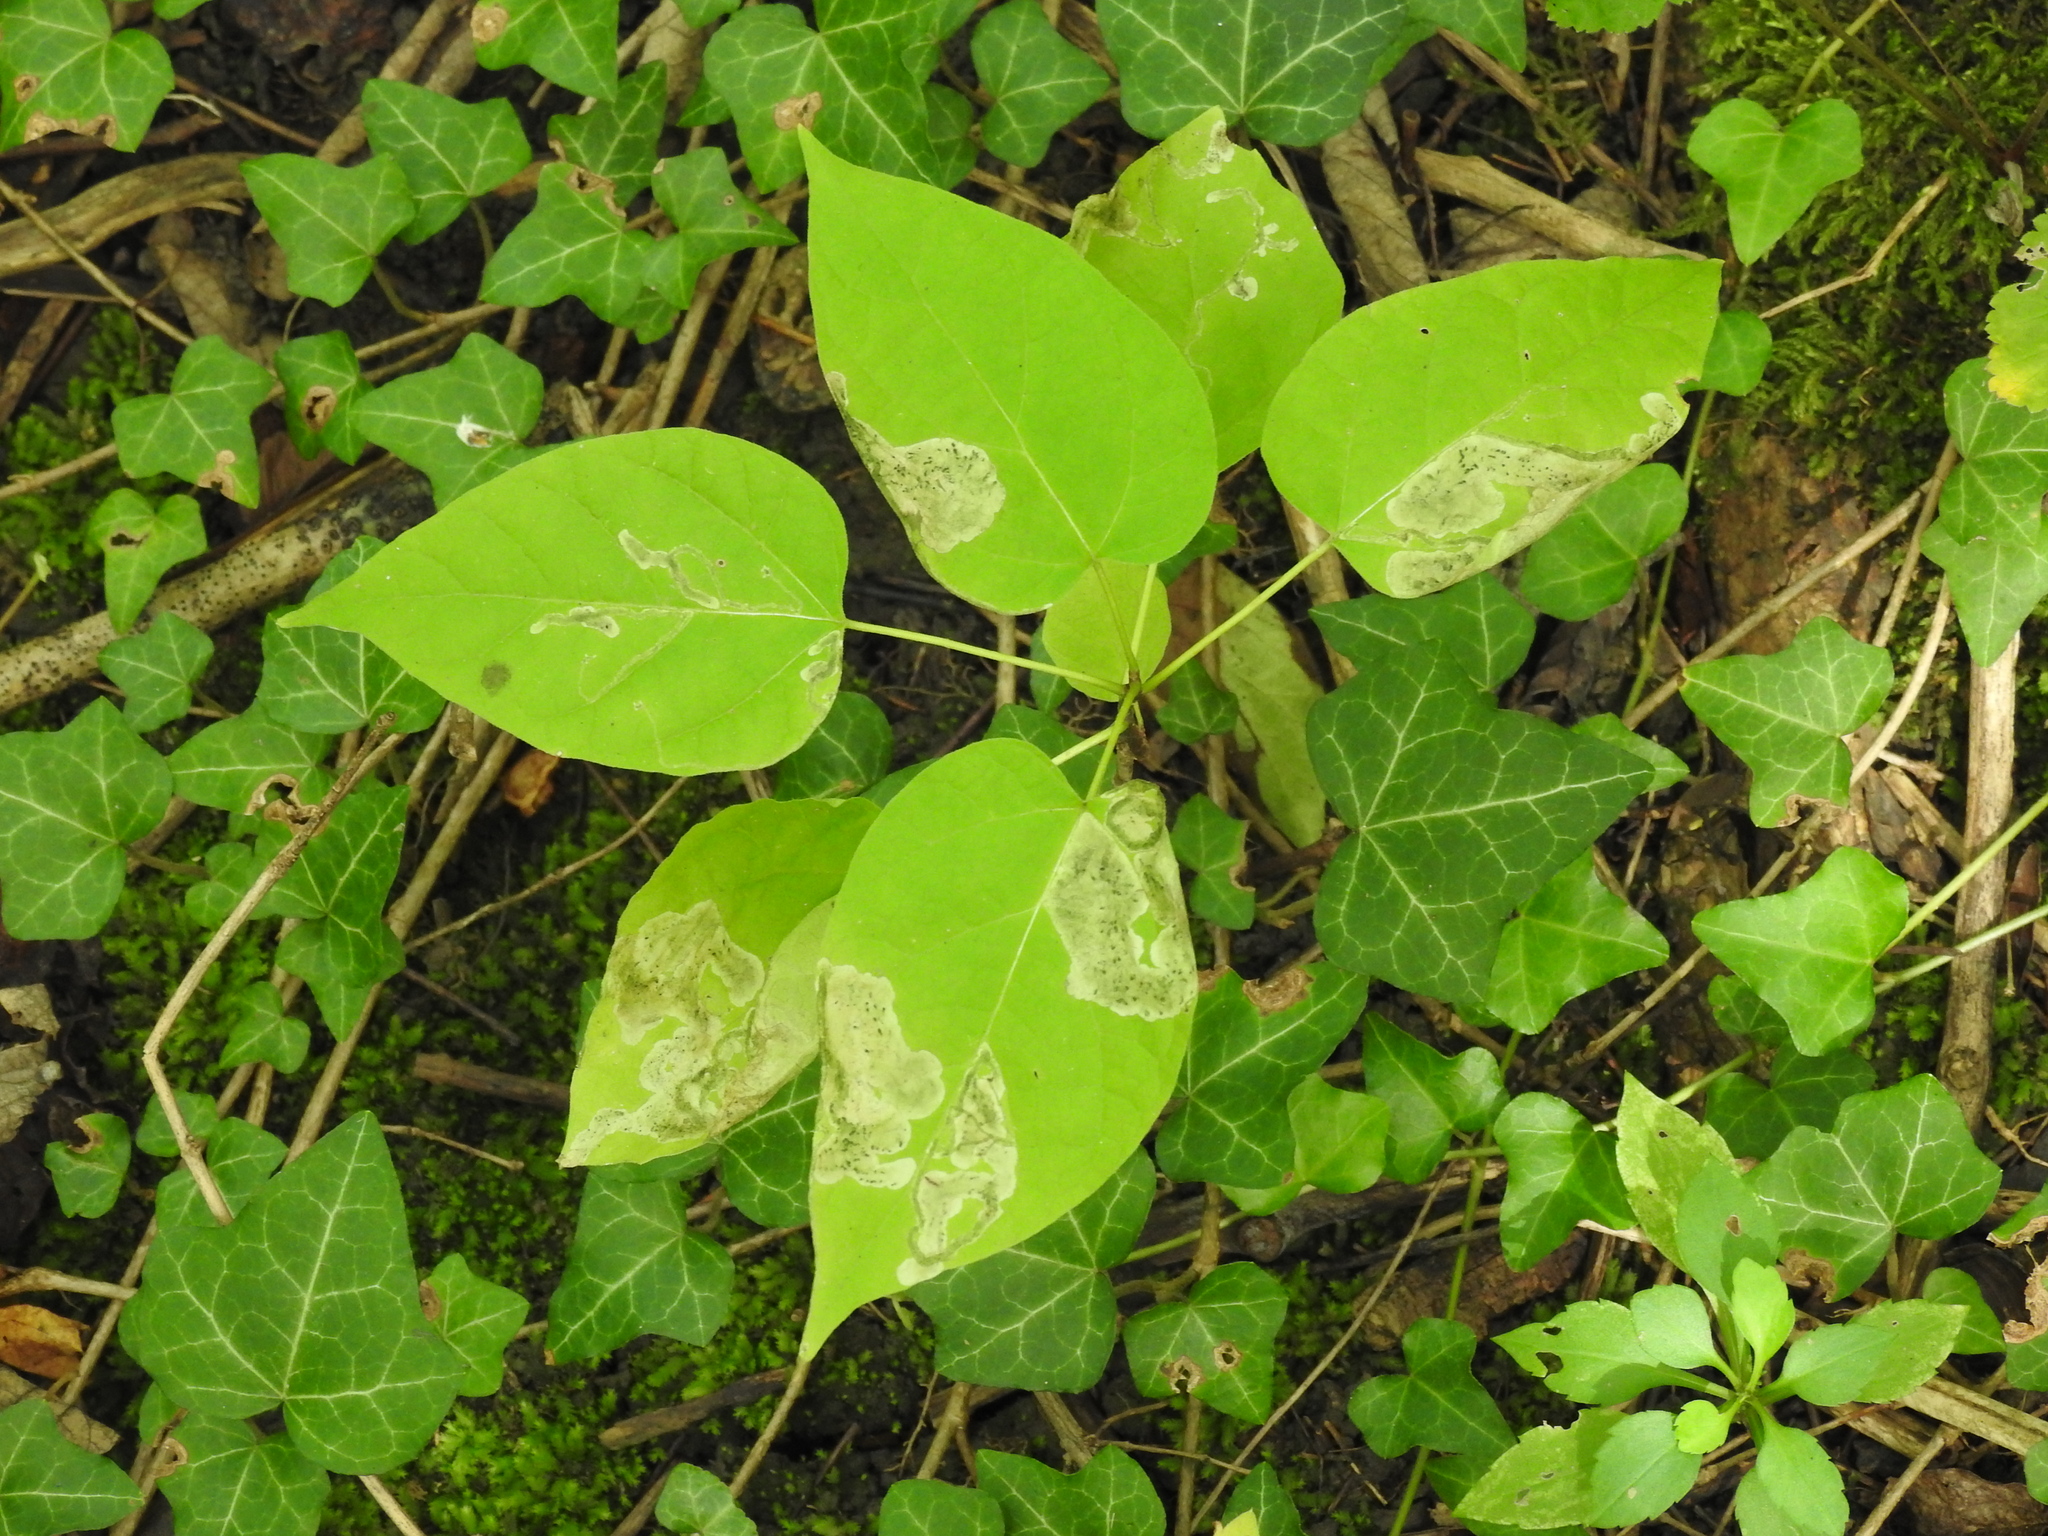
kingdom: Animalia
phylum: Arthropoda
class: Insecta
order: Diptera
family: Agromyzidae
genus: Amauromyza
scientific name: Amauromyza pleuralis
